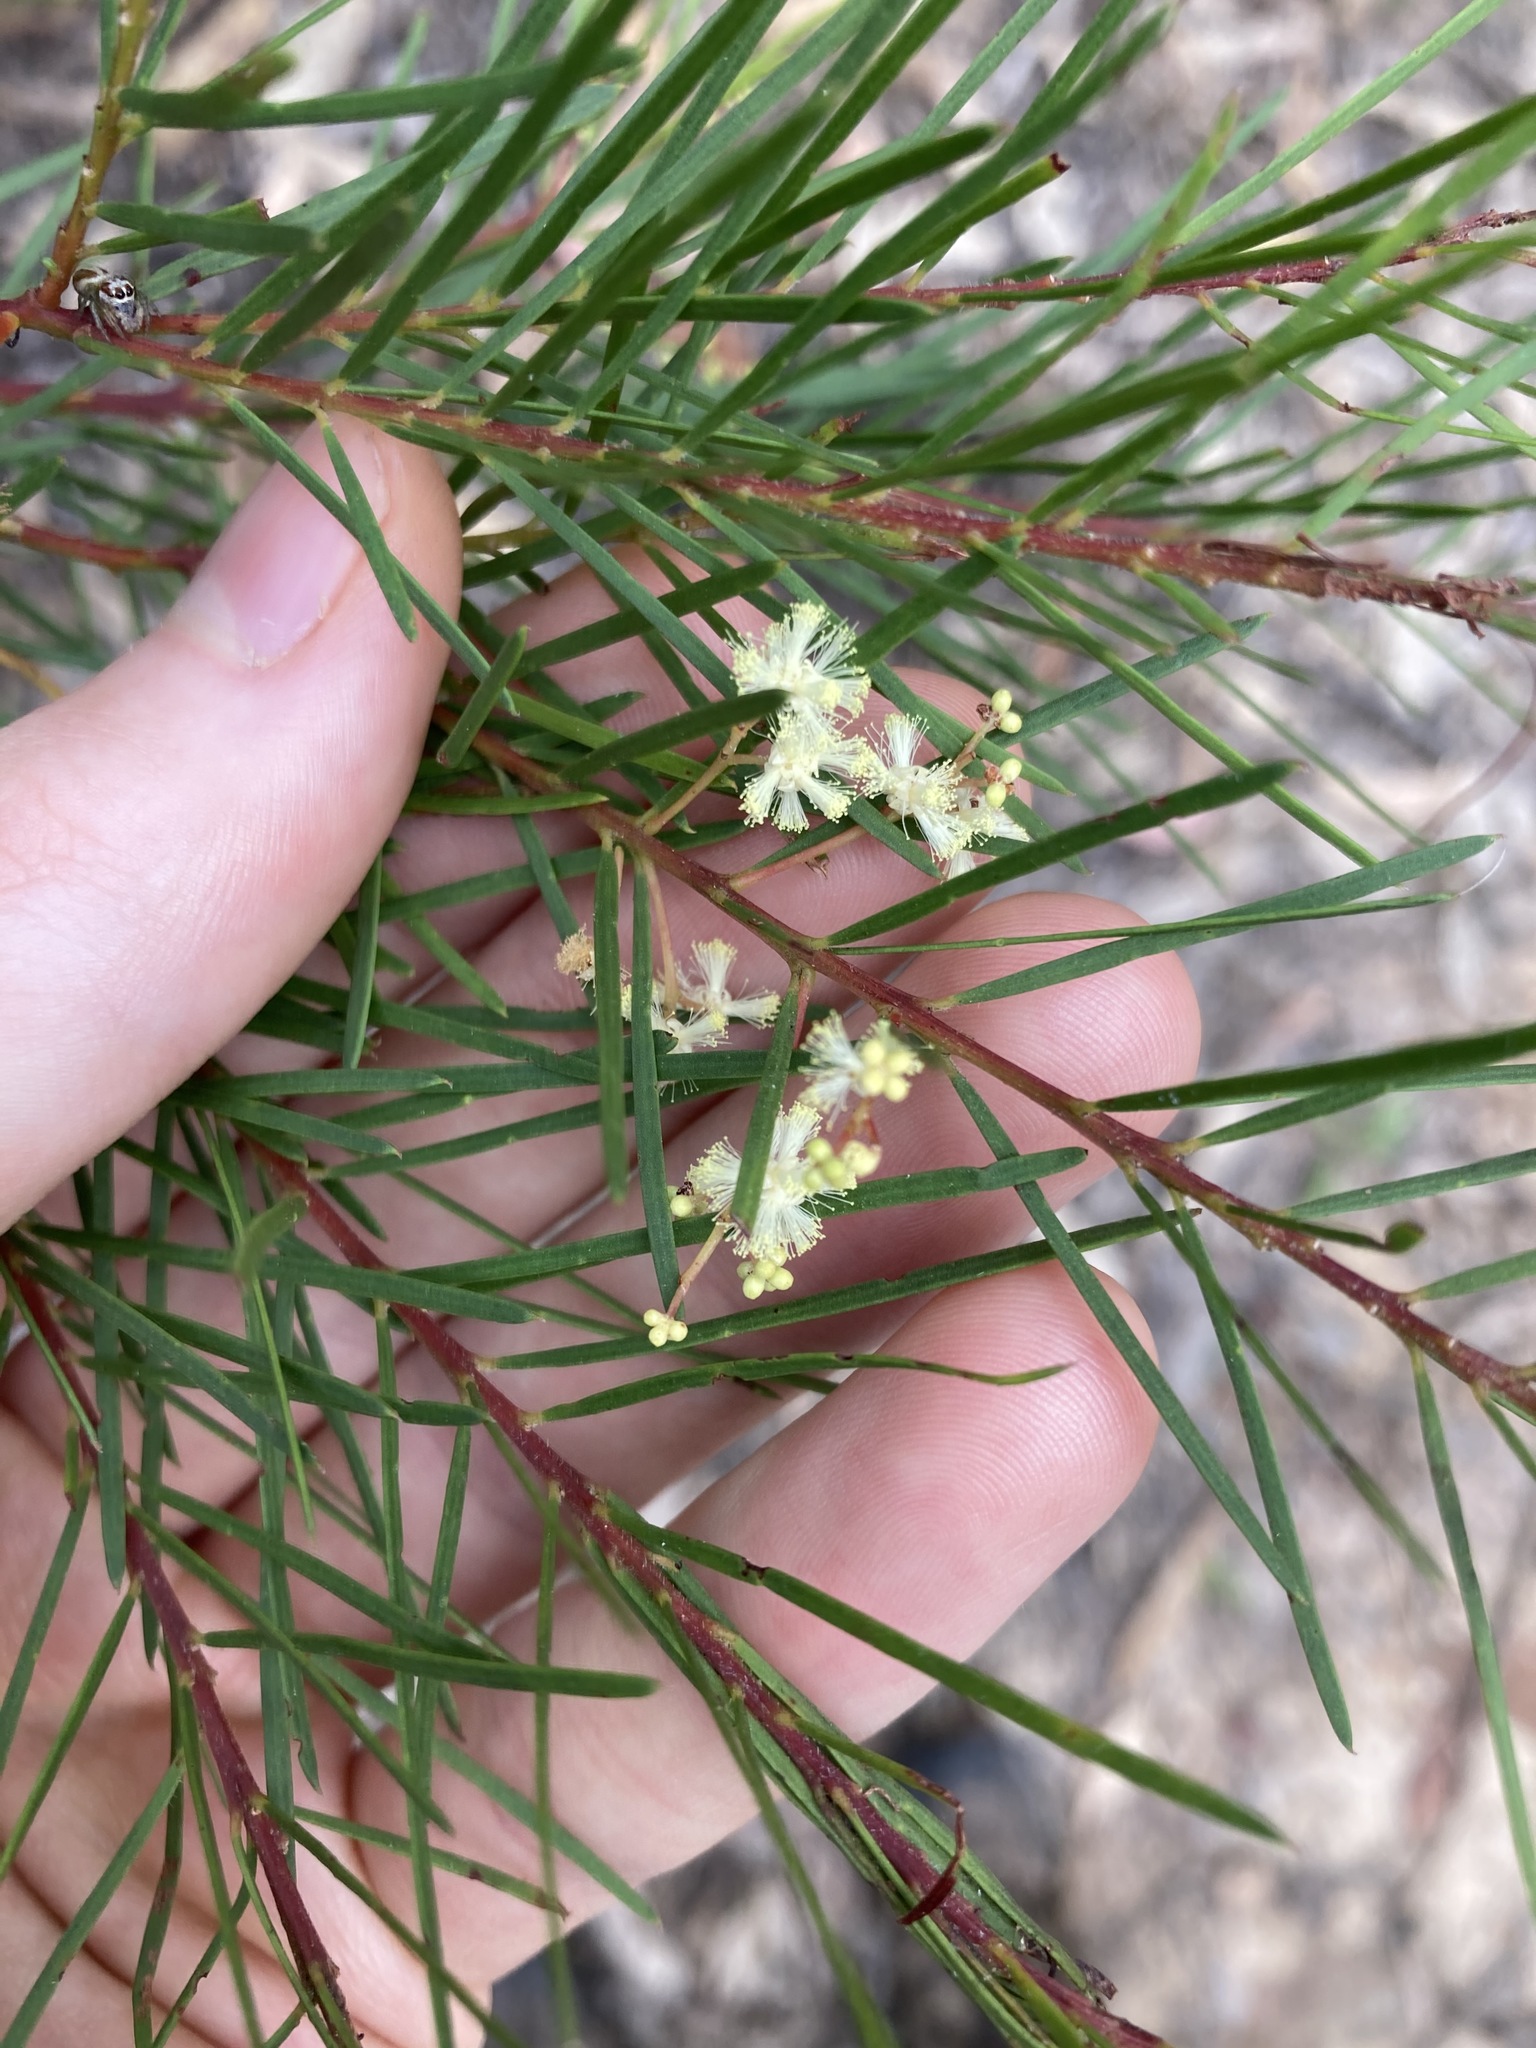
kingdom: Plantae
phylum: Tracheophyta
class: Magnoliopsida
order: Fabales
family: Fabaceae
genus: Acacia
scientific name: Acacia linifolia
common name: White wattle
